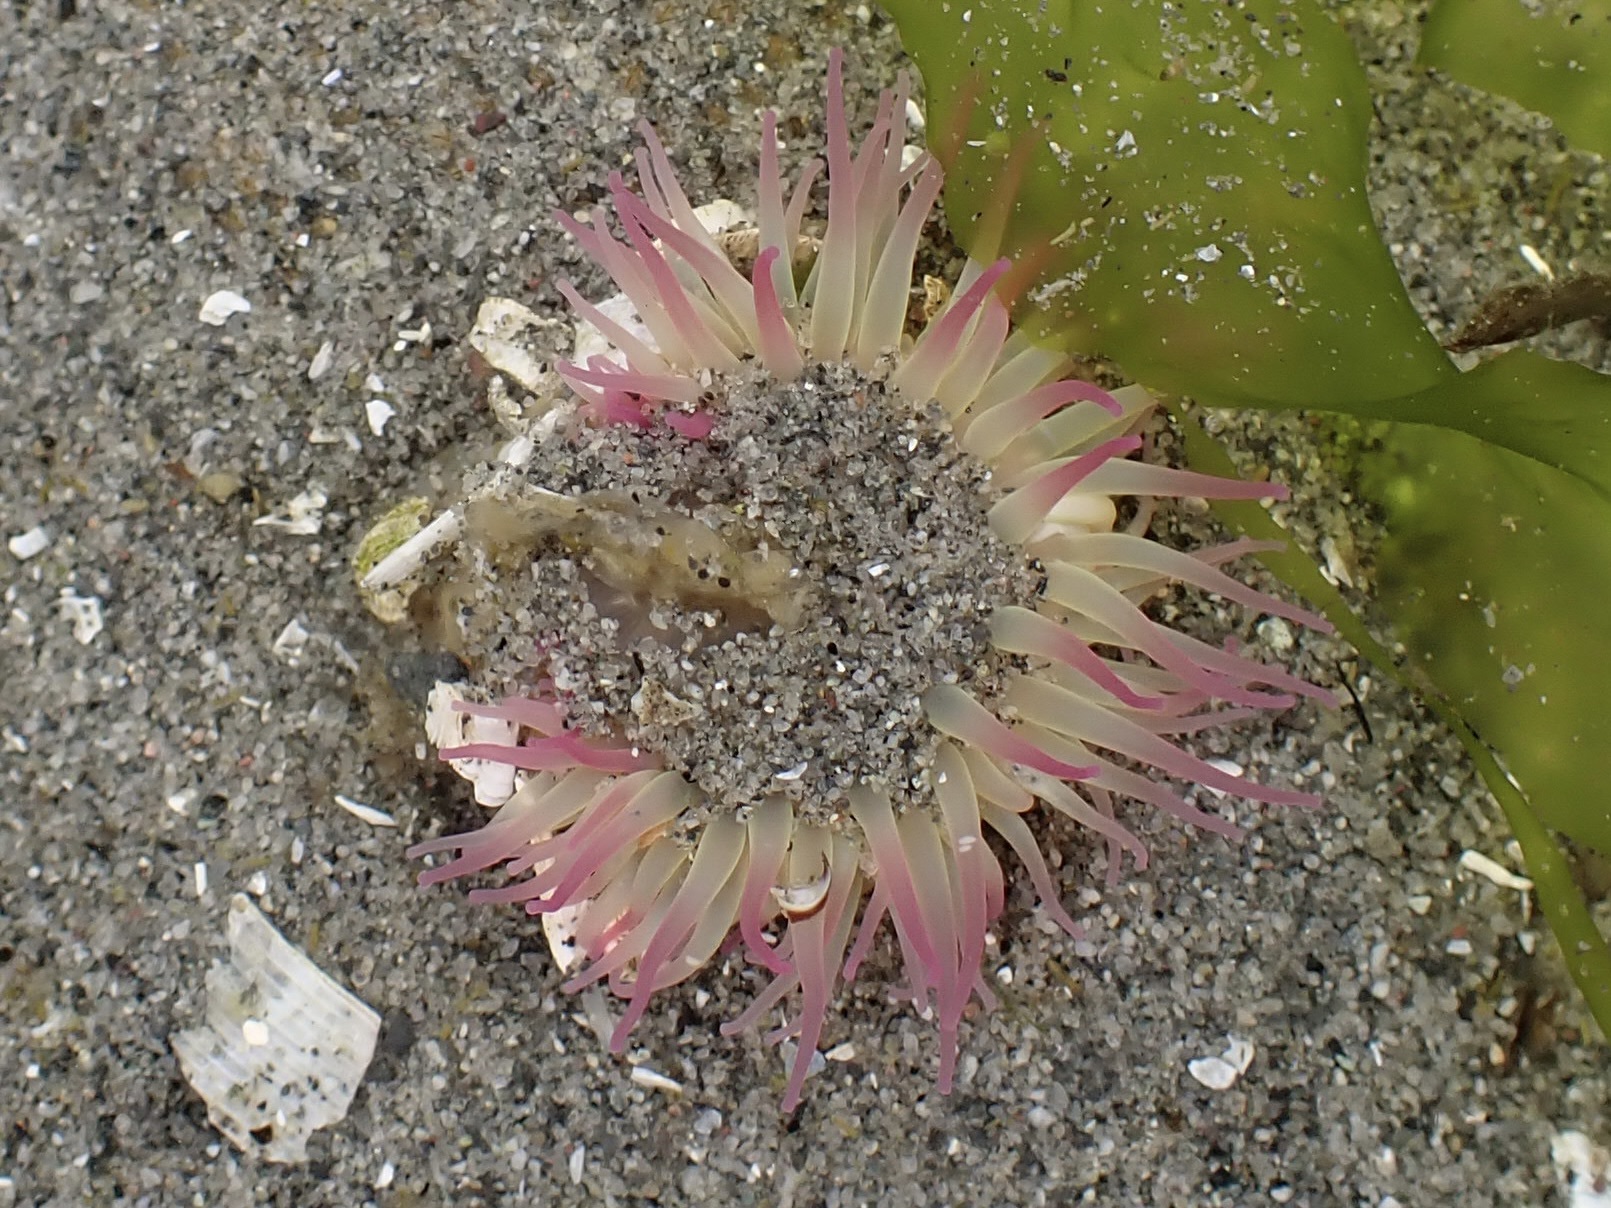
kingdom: Animalia
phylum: Cnidaria
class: Anthozoa
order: Actiniaria
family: Actiniidae
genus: Anthopleura
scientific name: Anthopleura elegantissima
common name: Clonal anemone
